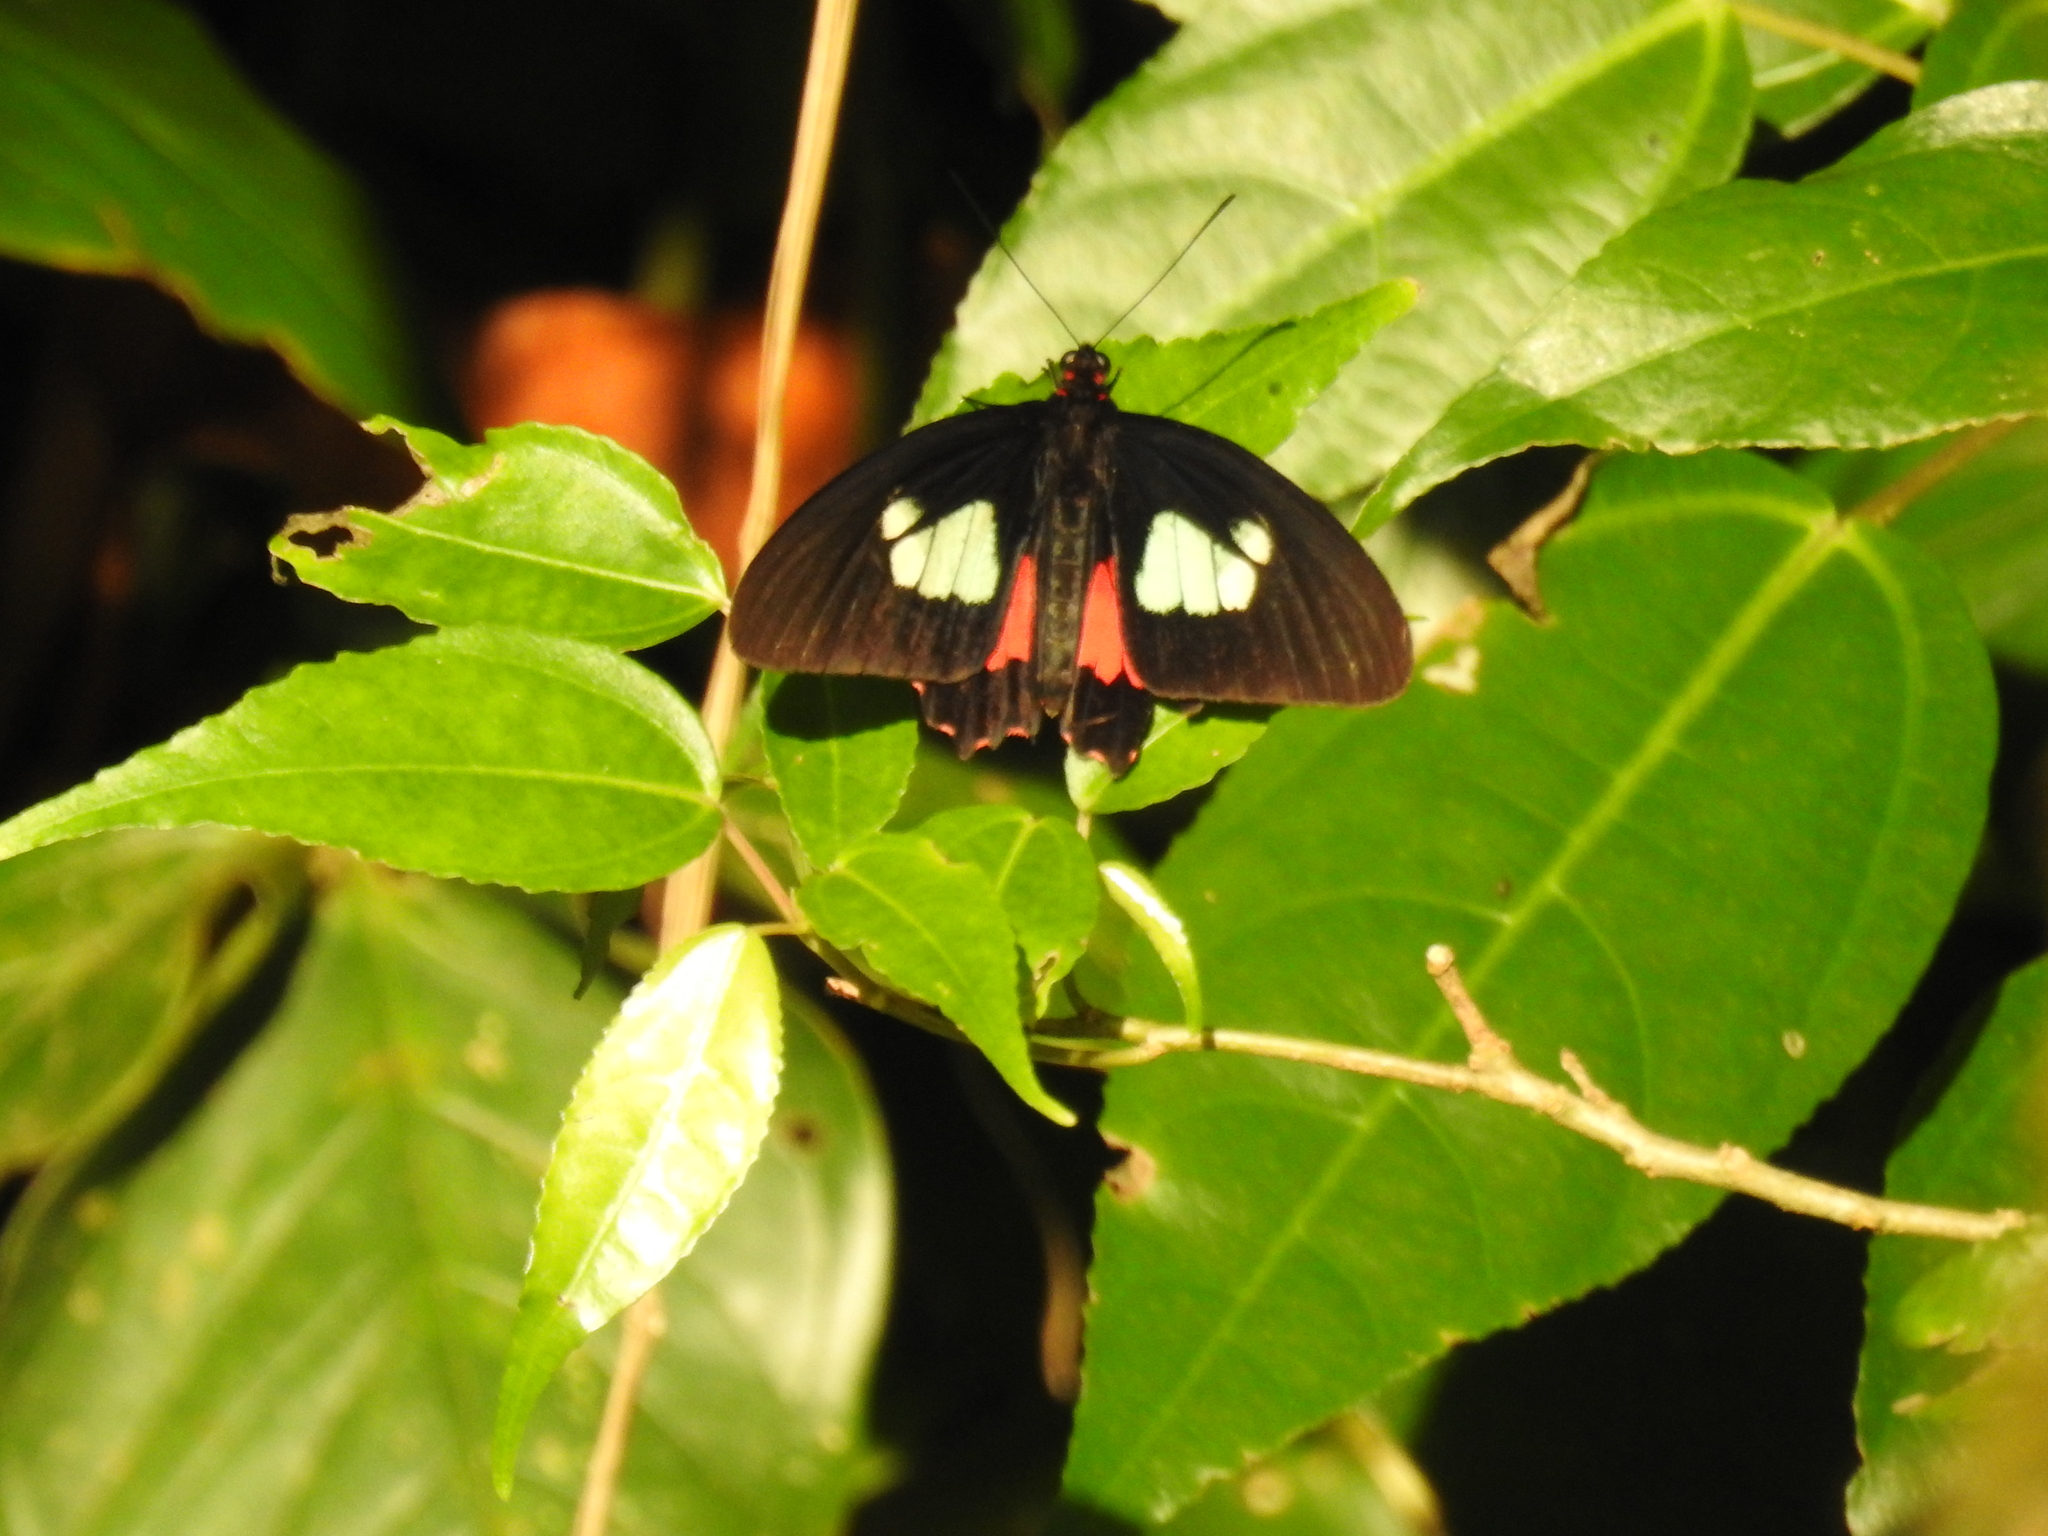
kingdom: Animalia
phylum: Arthropoda
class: Insecta
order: Lepidoptera
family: Papilionidae
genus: Parides
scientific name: Parides eurimedes
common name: True cattleheart
